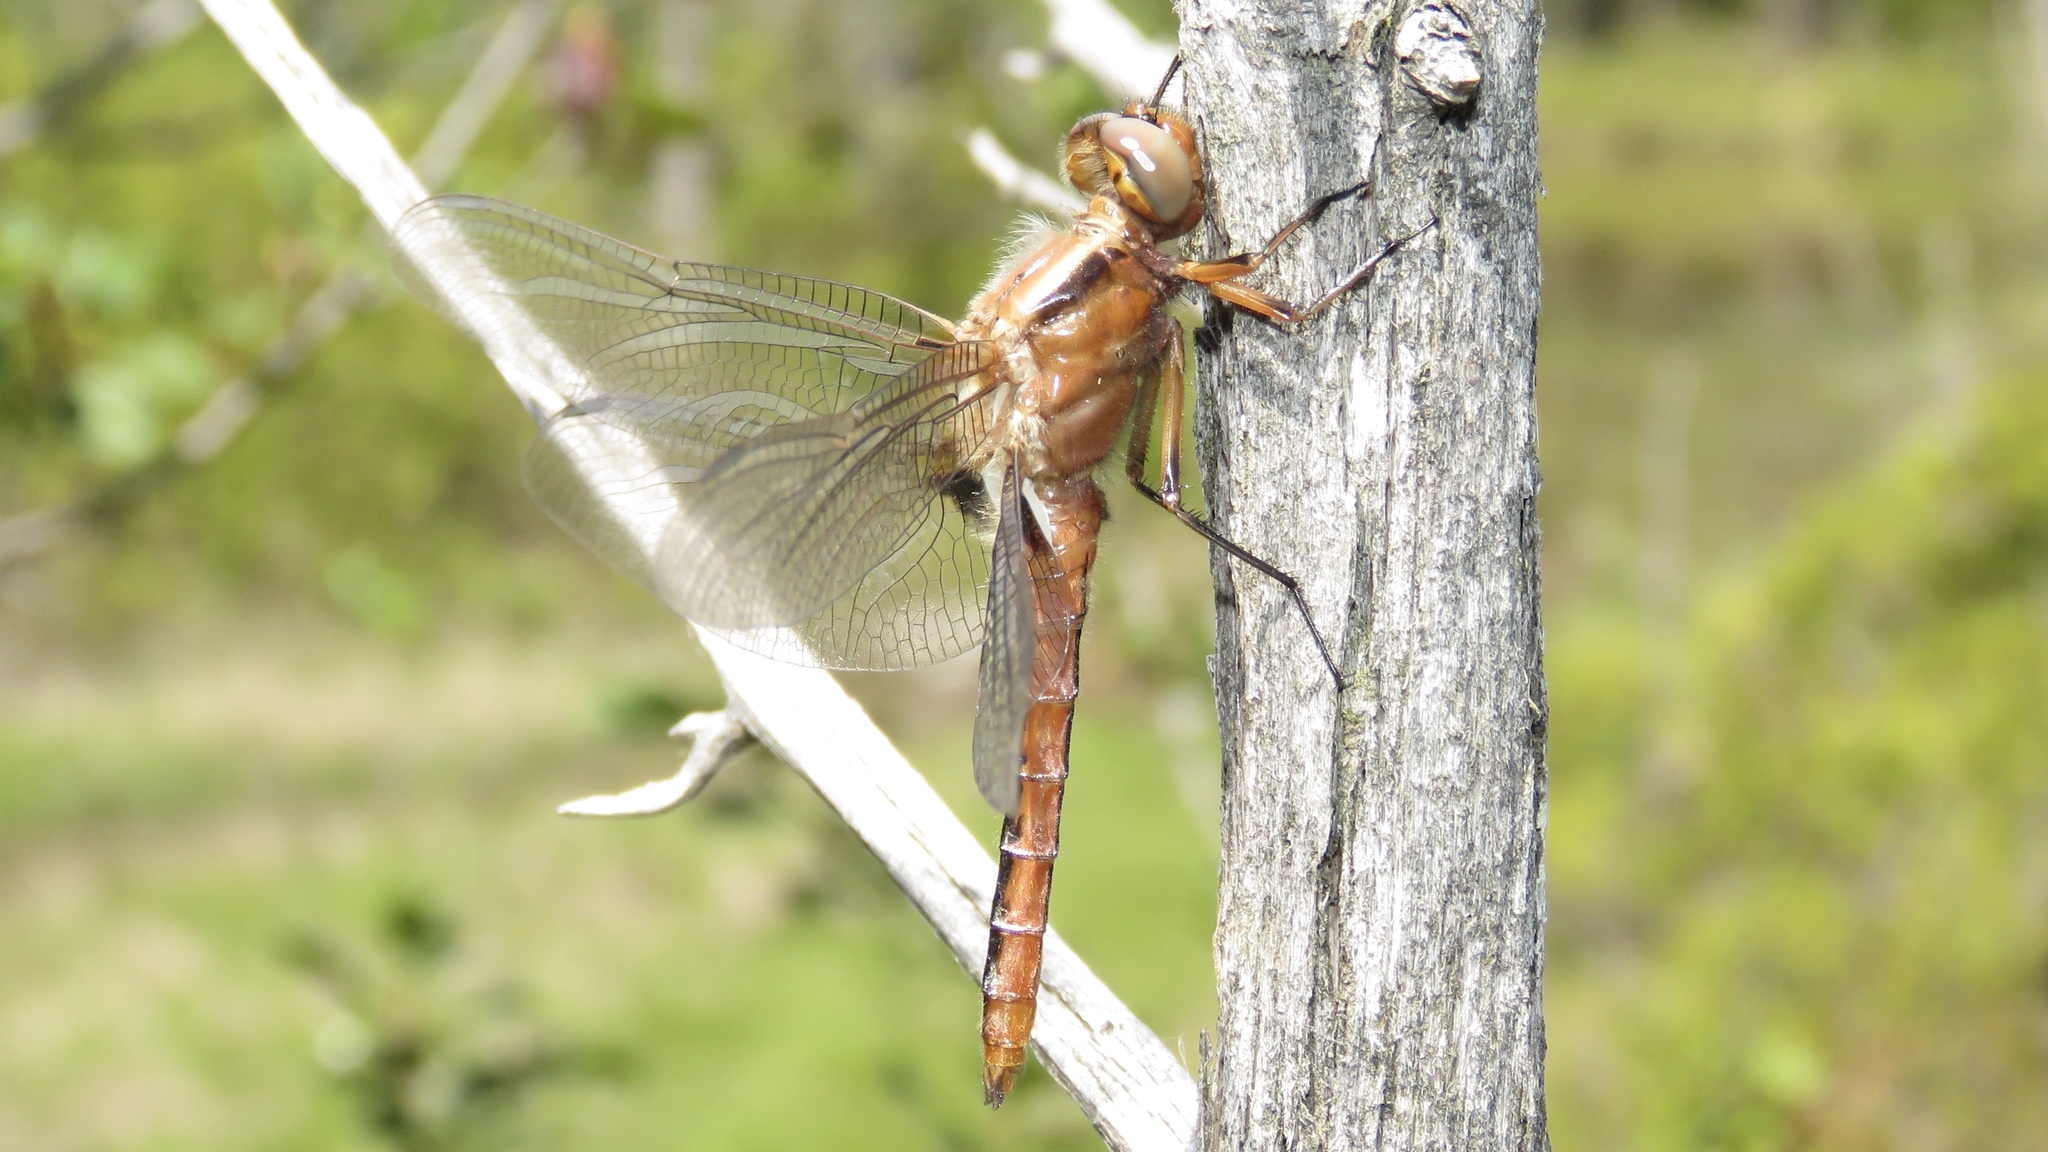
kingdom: Animalia
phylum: Arthropoda
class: Insecta
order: Odonata
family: Libellulidae
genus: Ladona
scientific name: Ladona julia
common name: Chalk-fronted corporal
